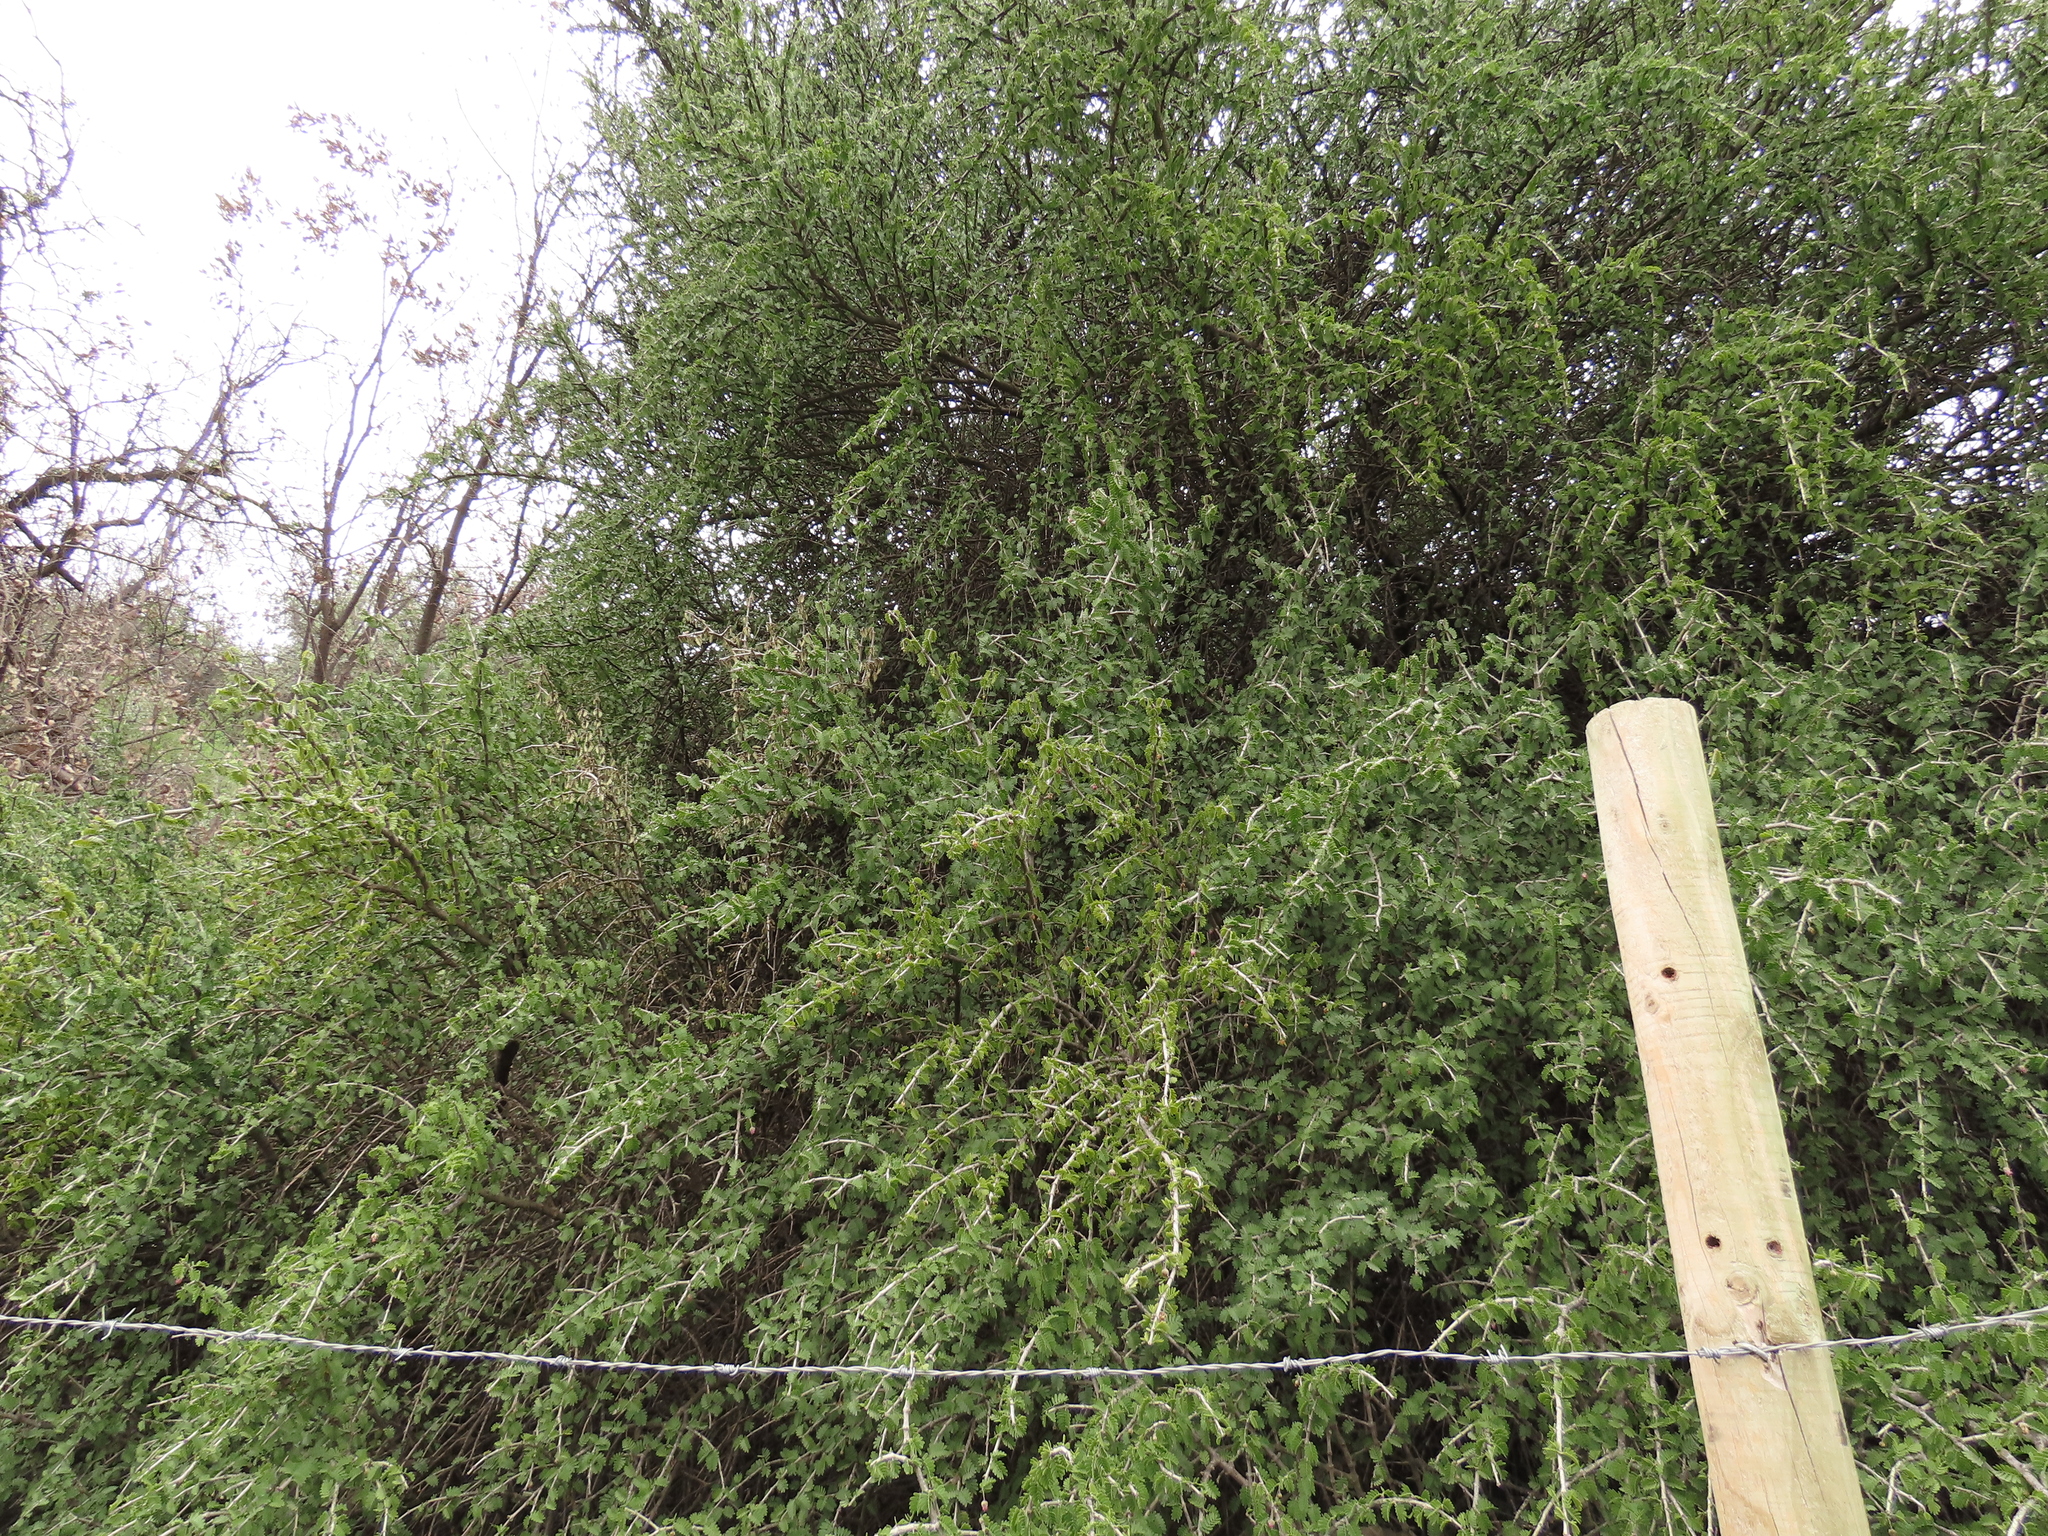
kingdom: Plantae
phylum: Tracheophyta
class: Magnoliopsida
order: Zygophyllales
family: Zygophyllaceae
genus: Porlieria
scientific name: Porlieria chilensis
